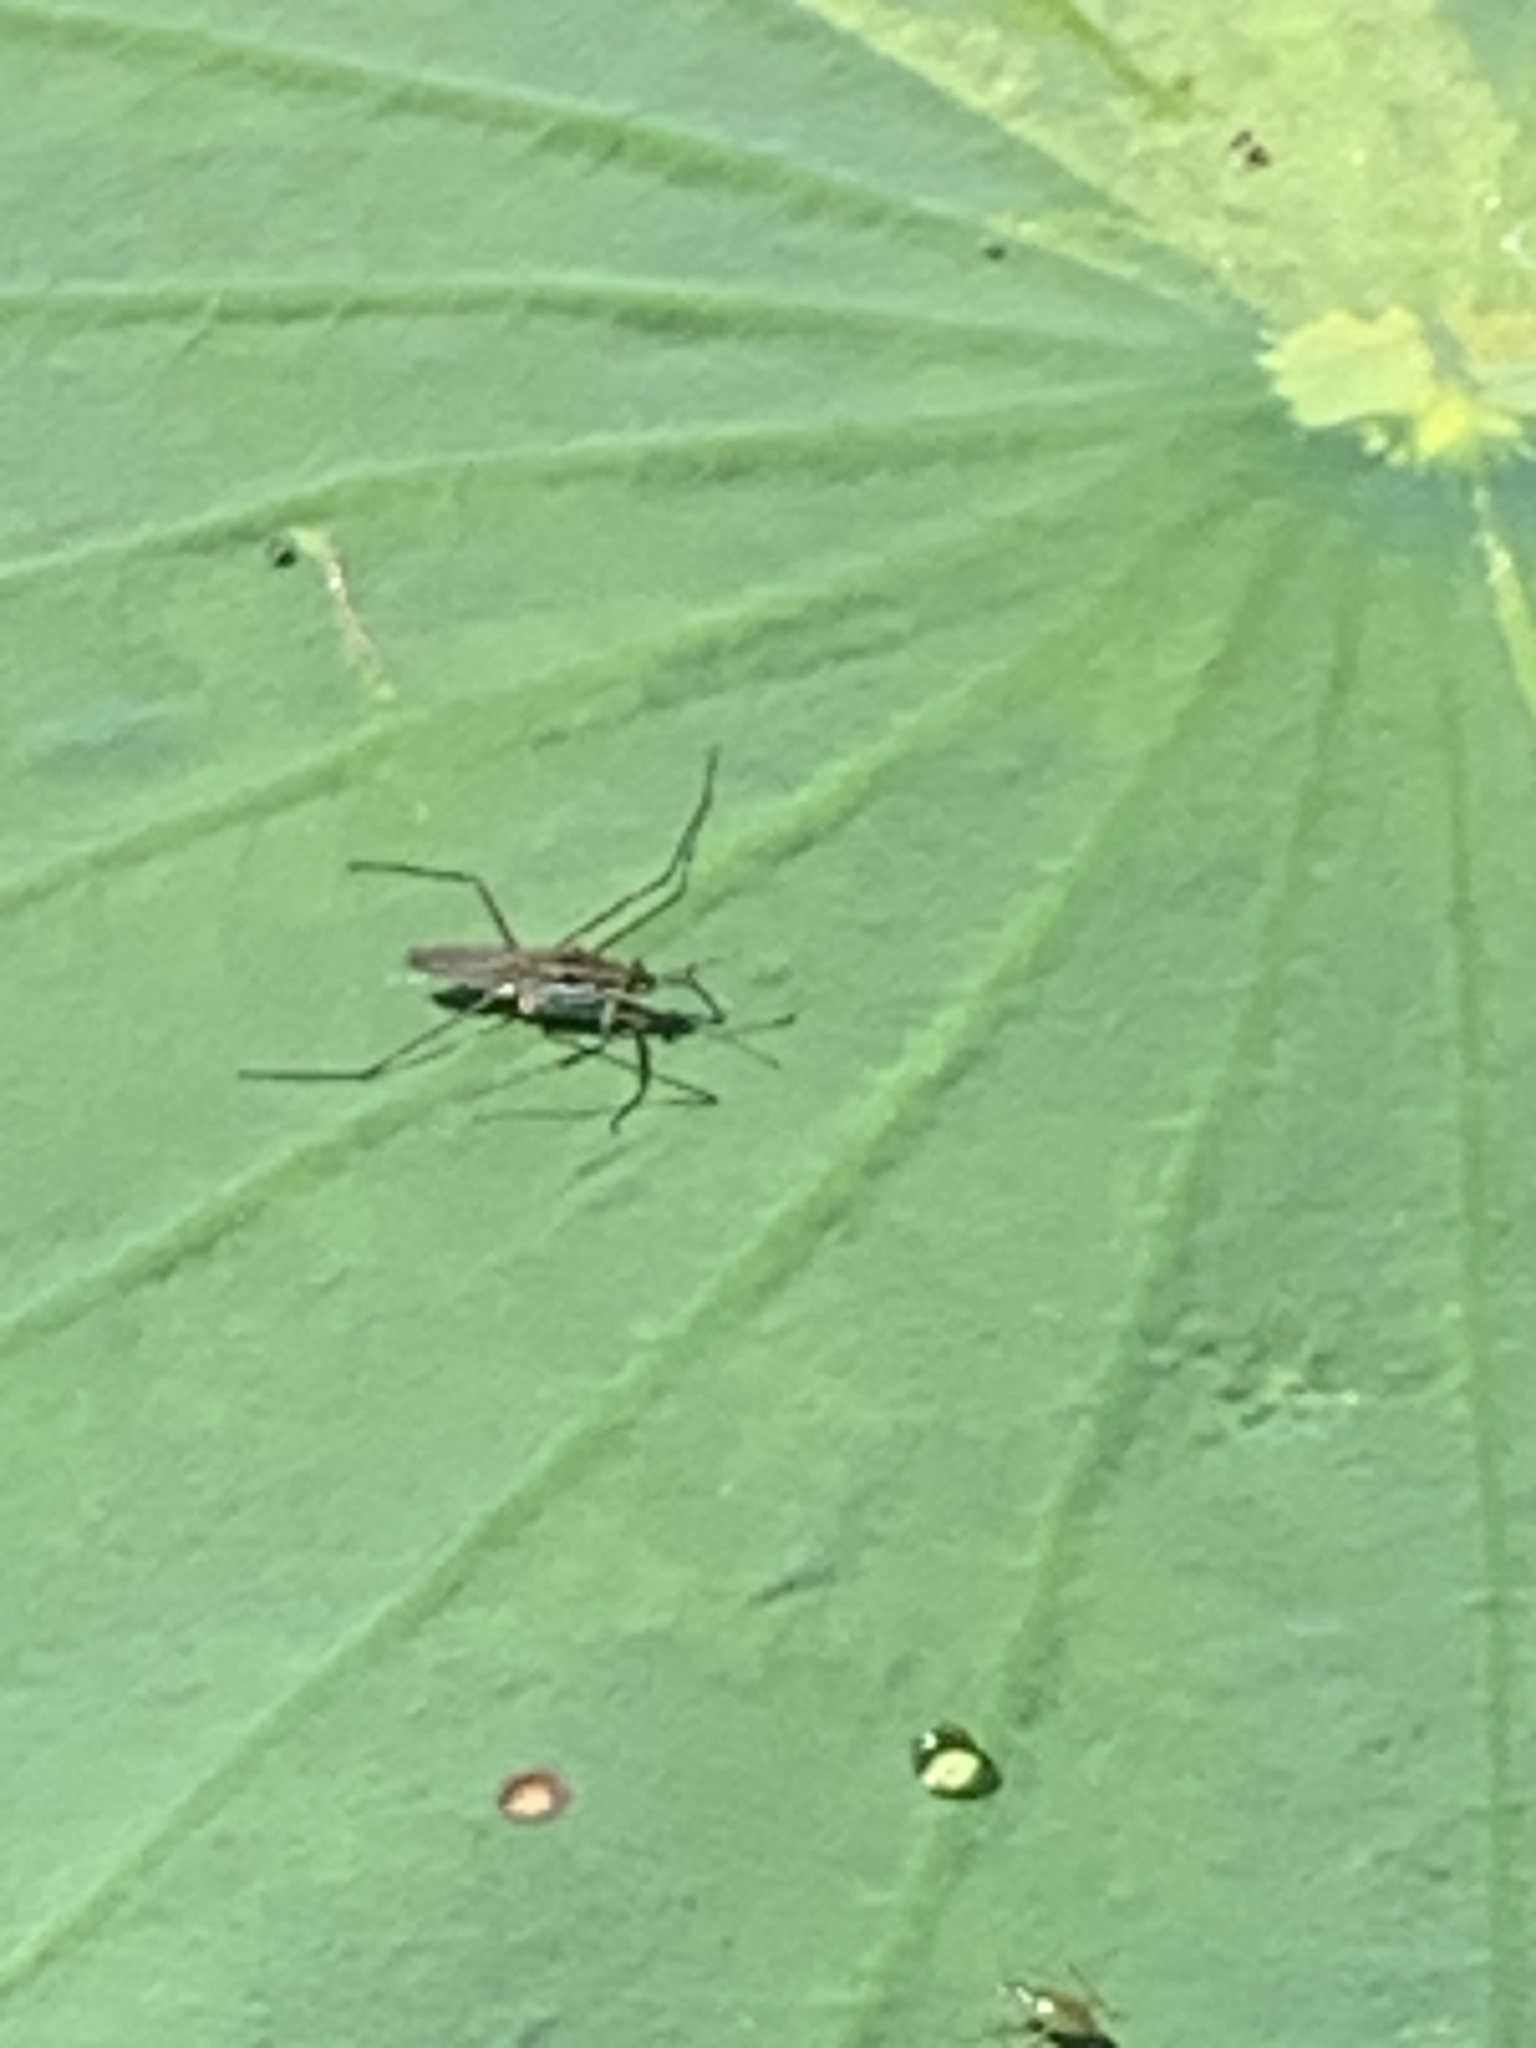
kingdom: Animalia
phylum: Arthropoda
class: Insecta
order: Hemiptera
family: Gerridae
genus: Gerris
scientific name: Gerris
